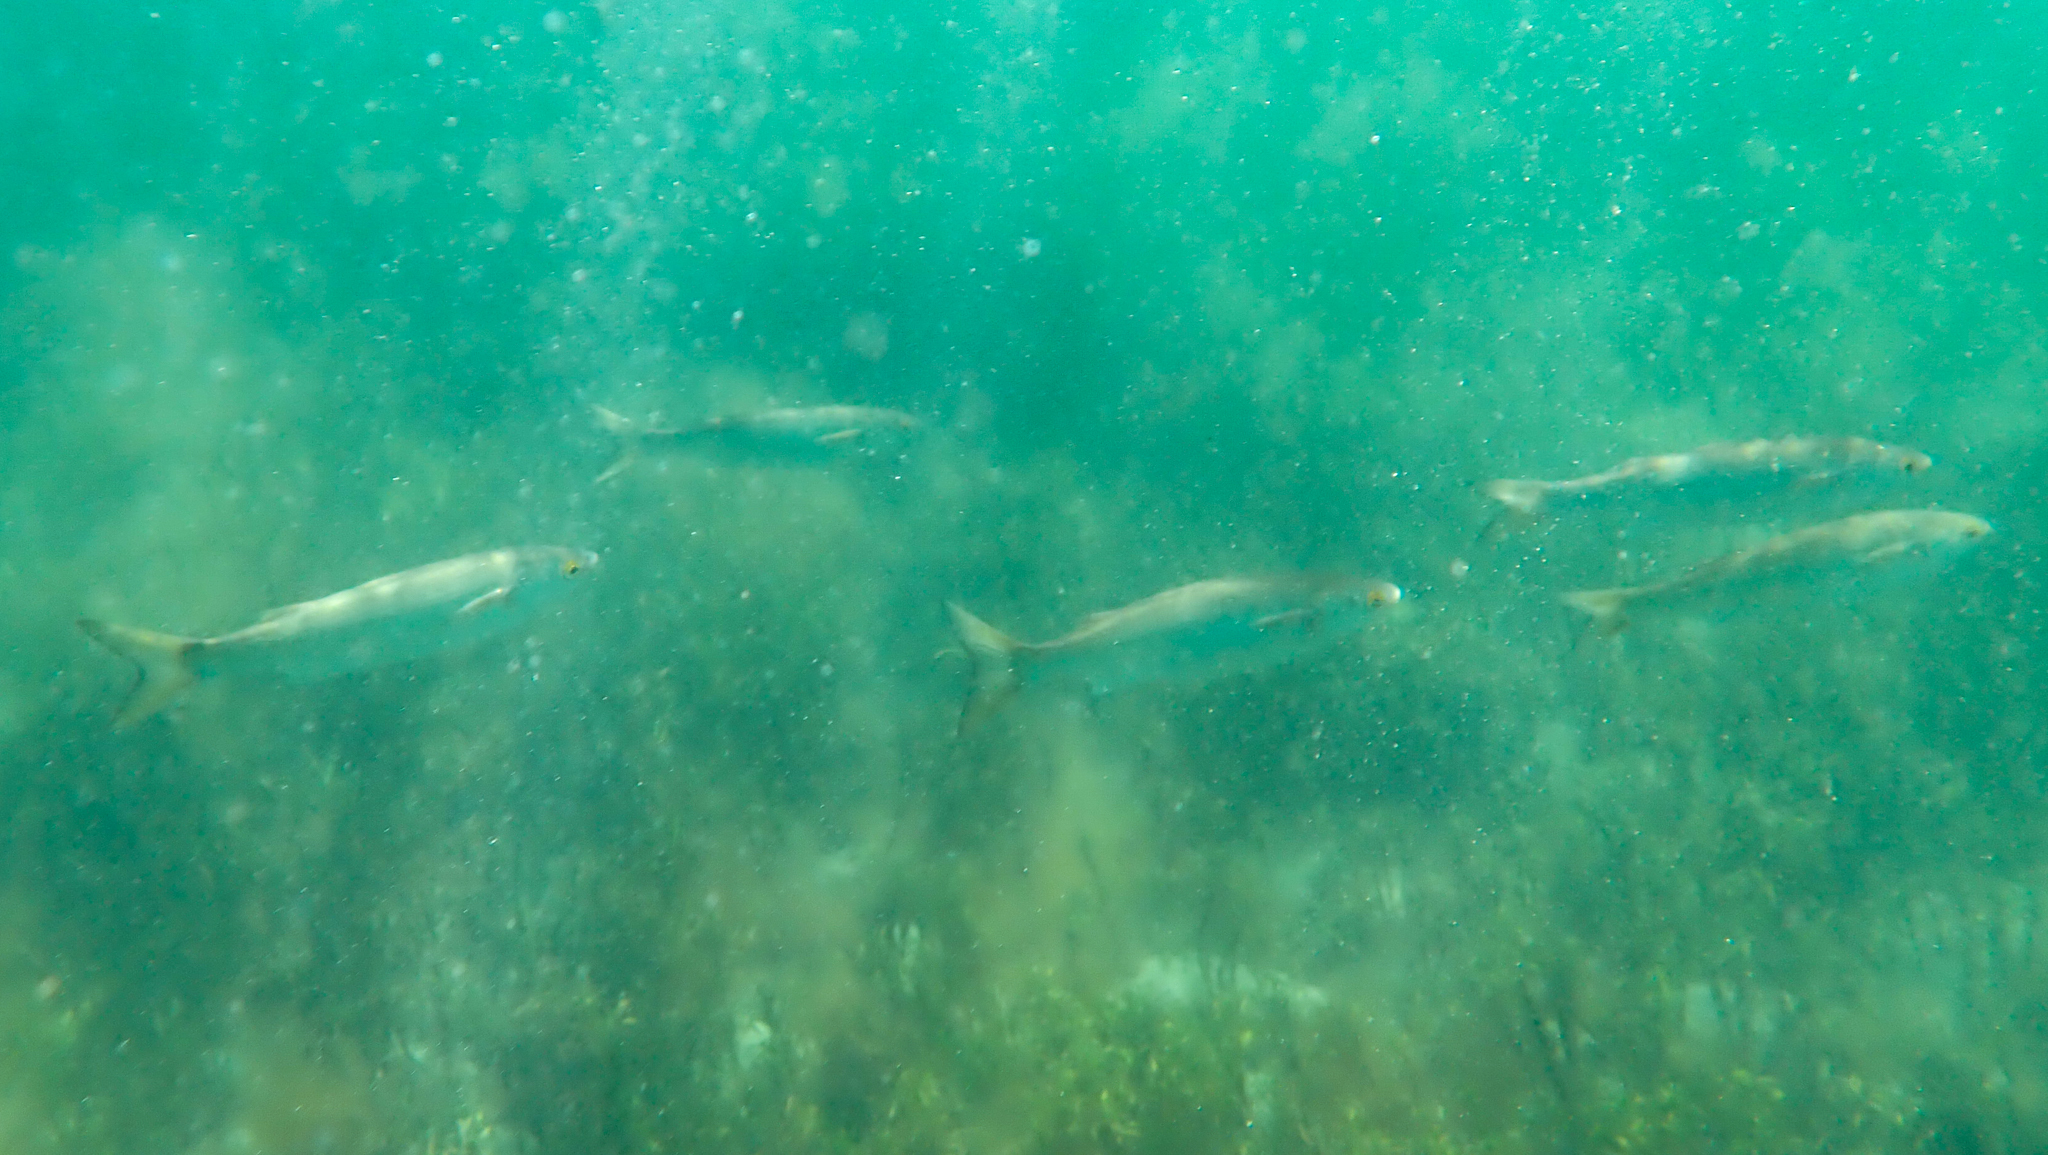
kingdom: Animalia
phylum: Chordata
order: Mugiliformes
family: Mugilidae
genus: Aldrichetta
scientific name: Aldrichetta forsteri
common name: Yellow-eye mullet
